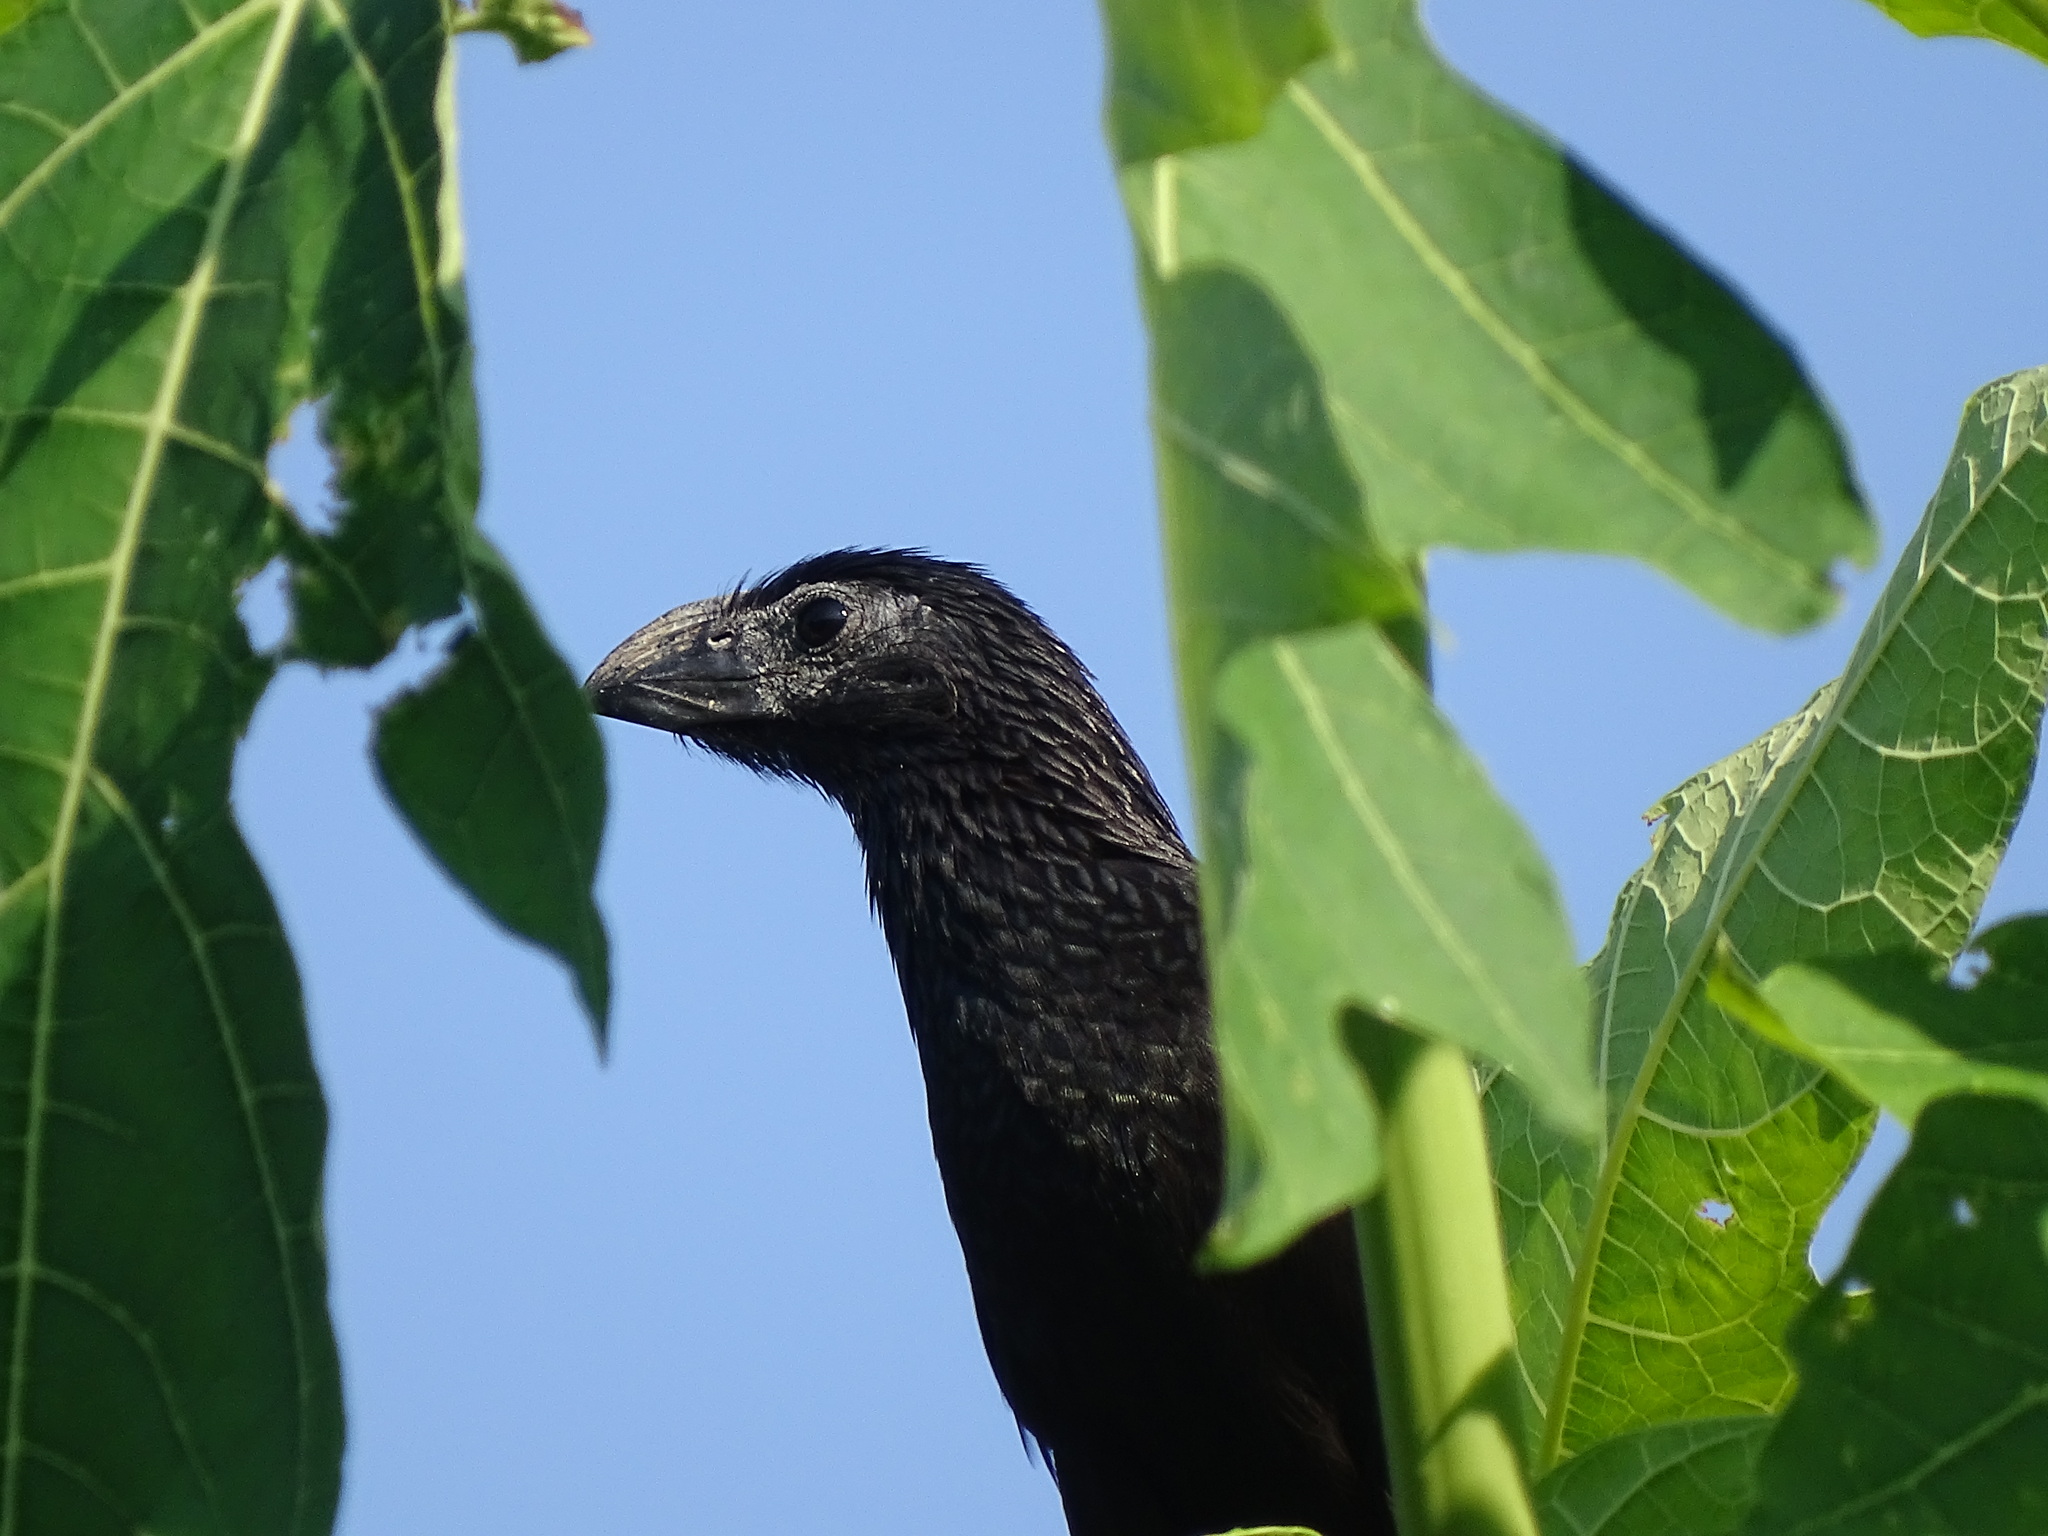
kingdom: Animalia
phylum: Chordata
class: Aves
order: Cuculiformes
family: Cuculidae
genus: Crotophaga
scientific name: Crotophaga sulcirostris
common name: Groove-billed ani
